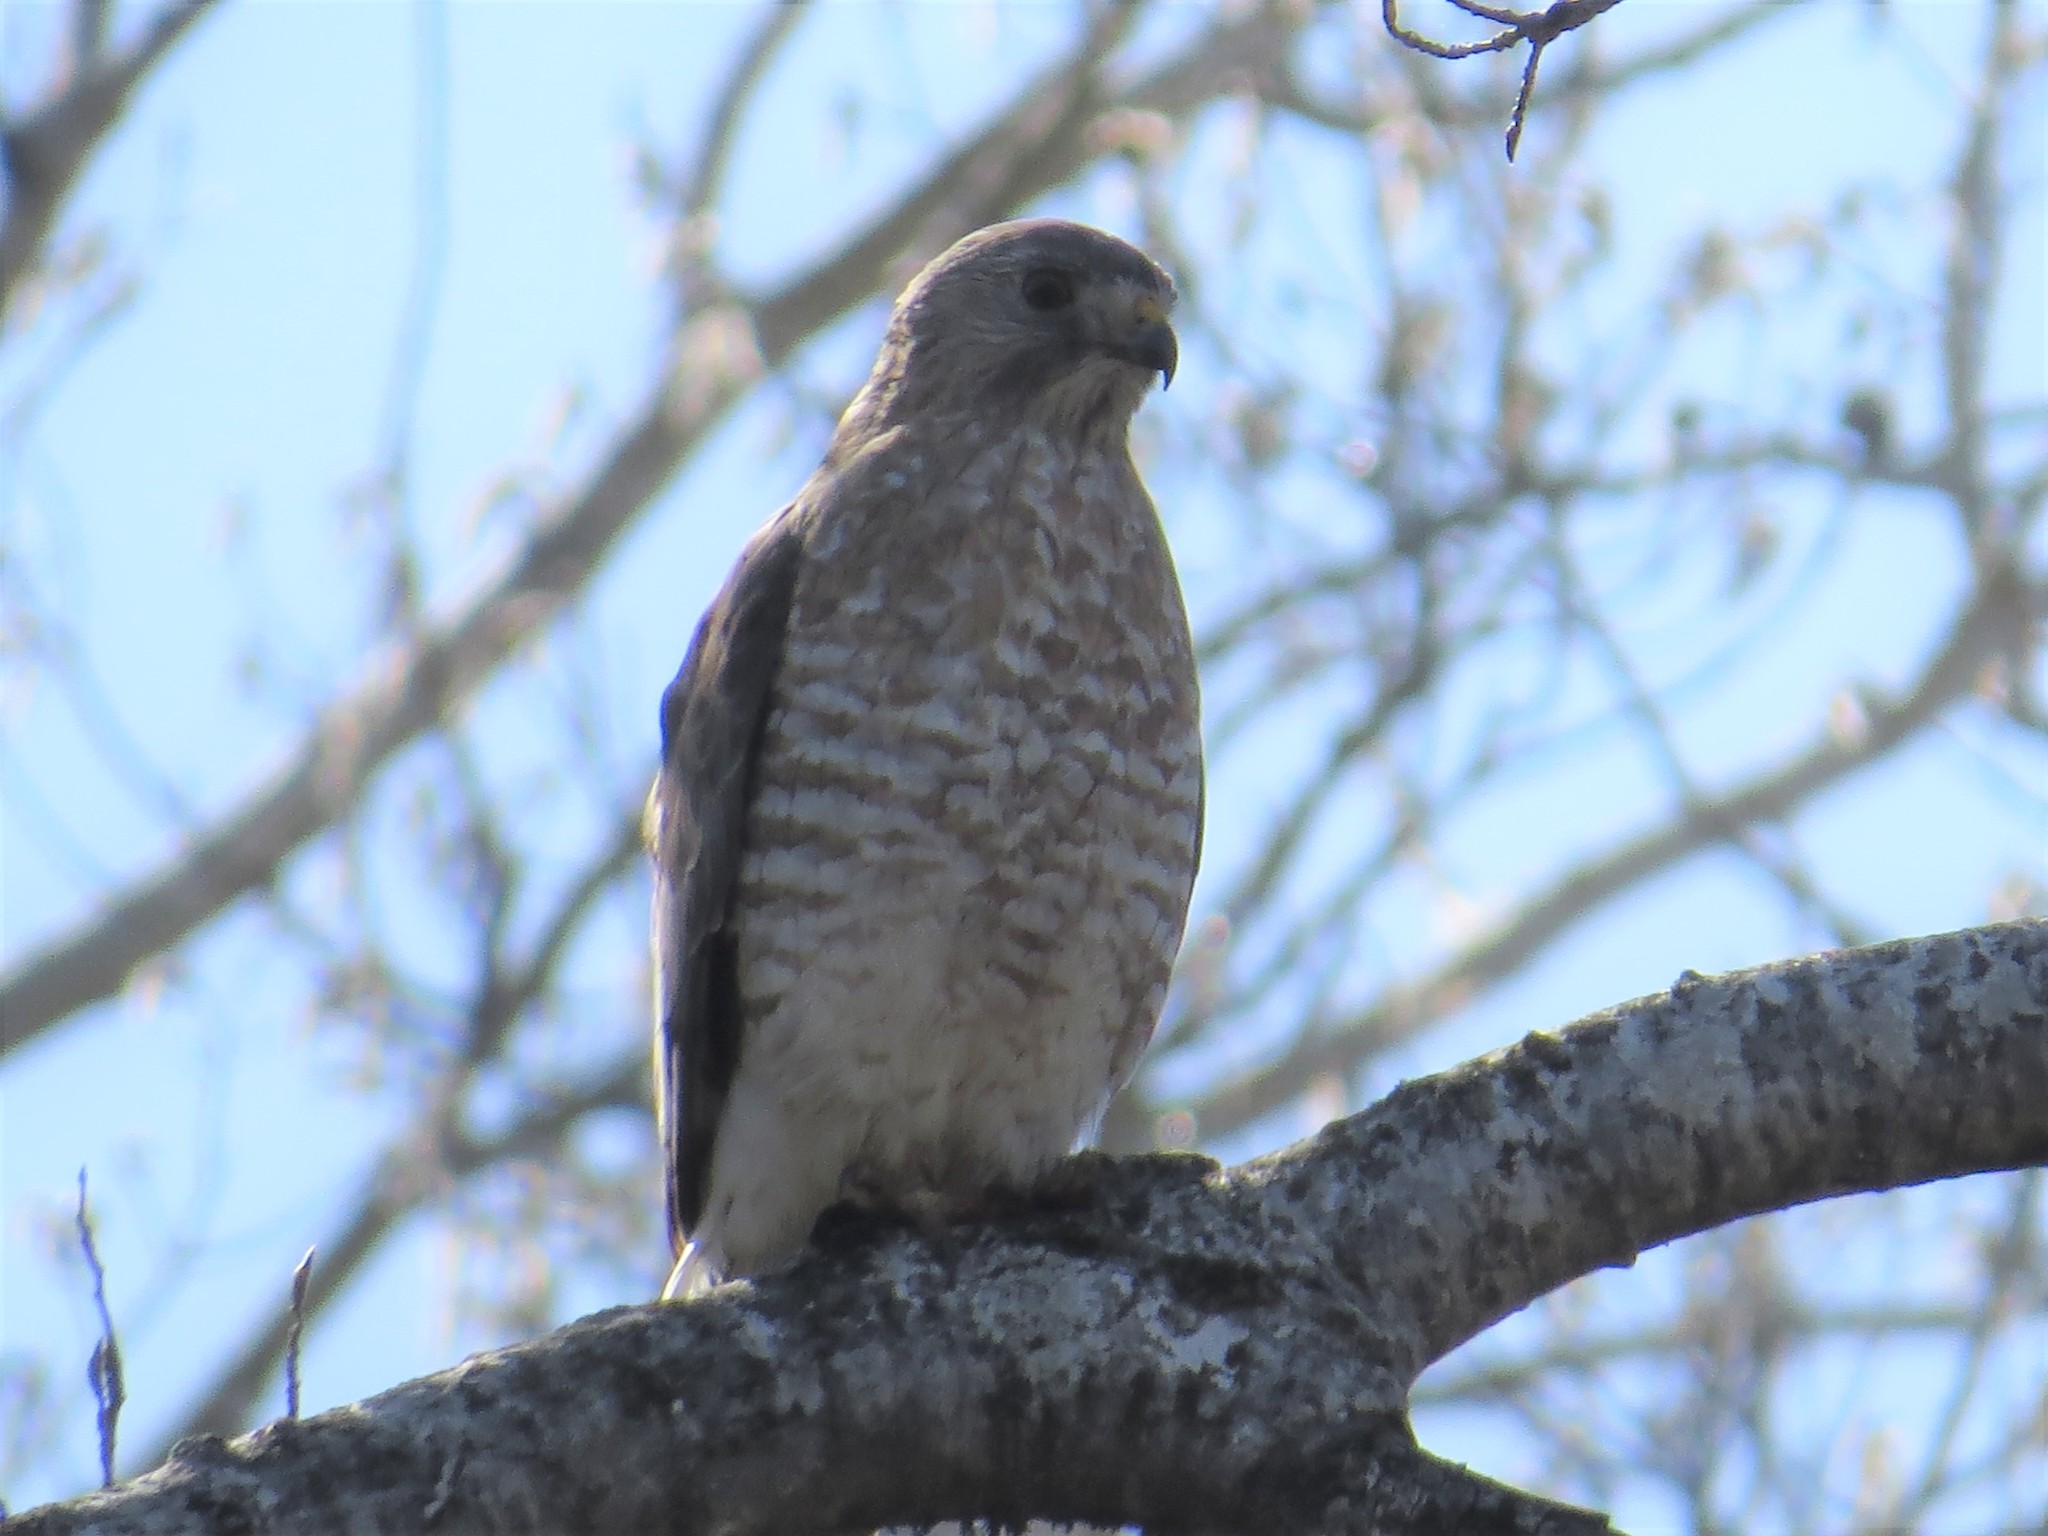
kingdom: Animalia
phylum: Chordata
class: Aves
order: Accipitriformes
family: Accipitridae
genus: Buteo
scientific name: Buteo platypterus
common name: Broad-winged hawk
